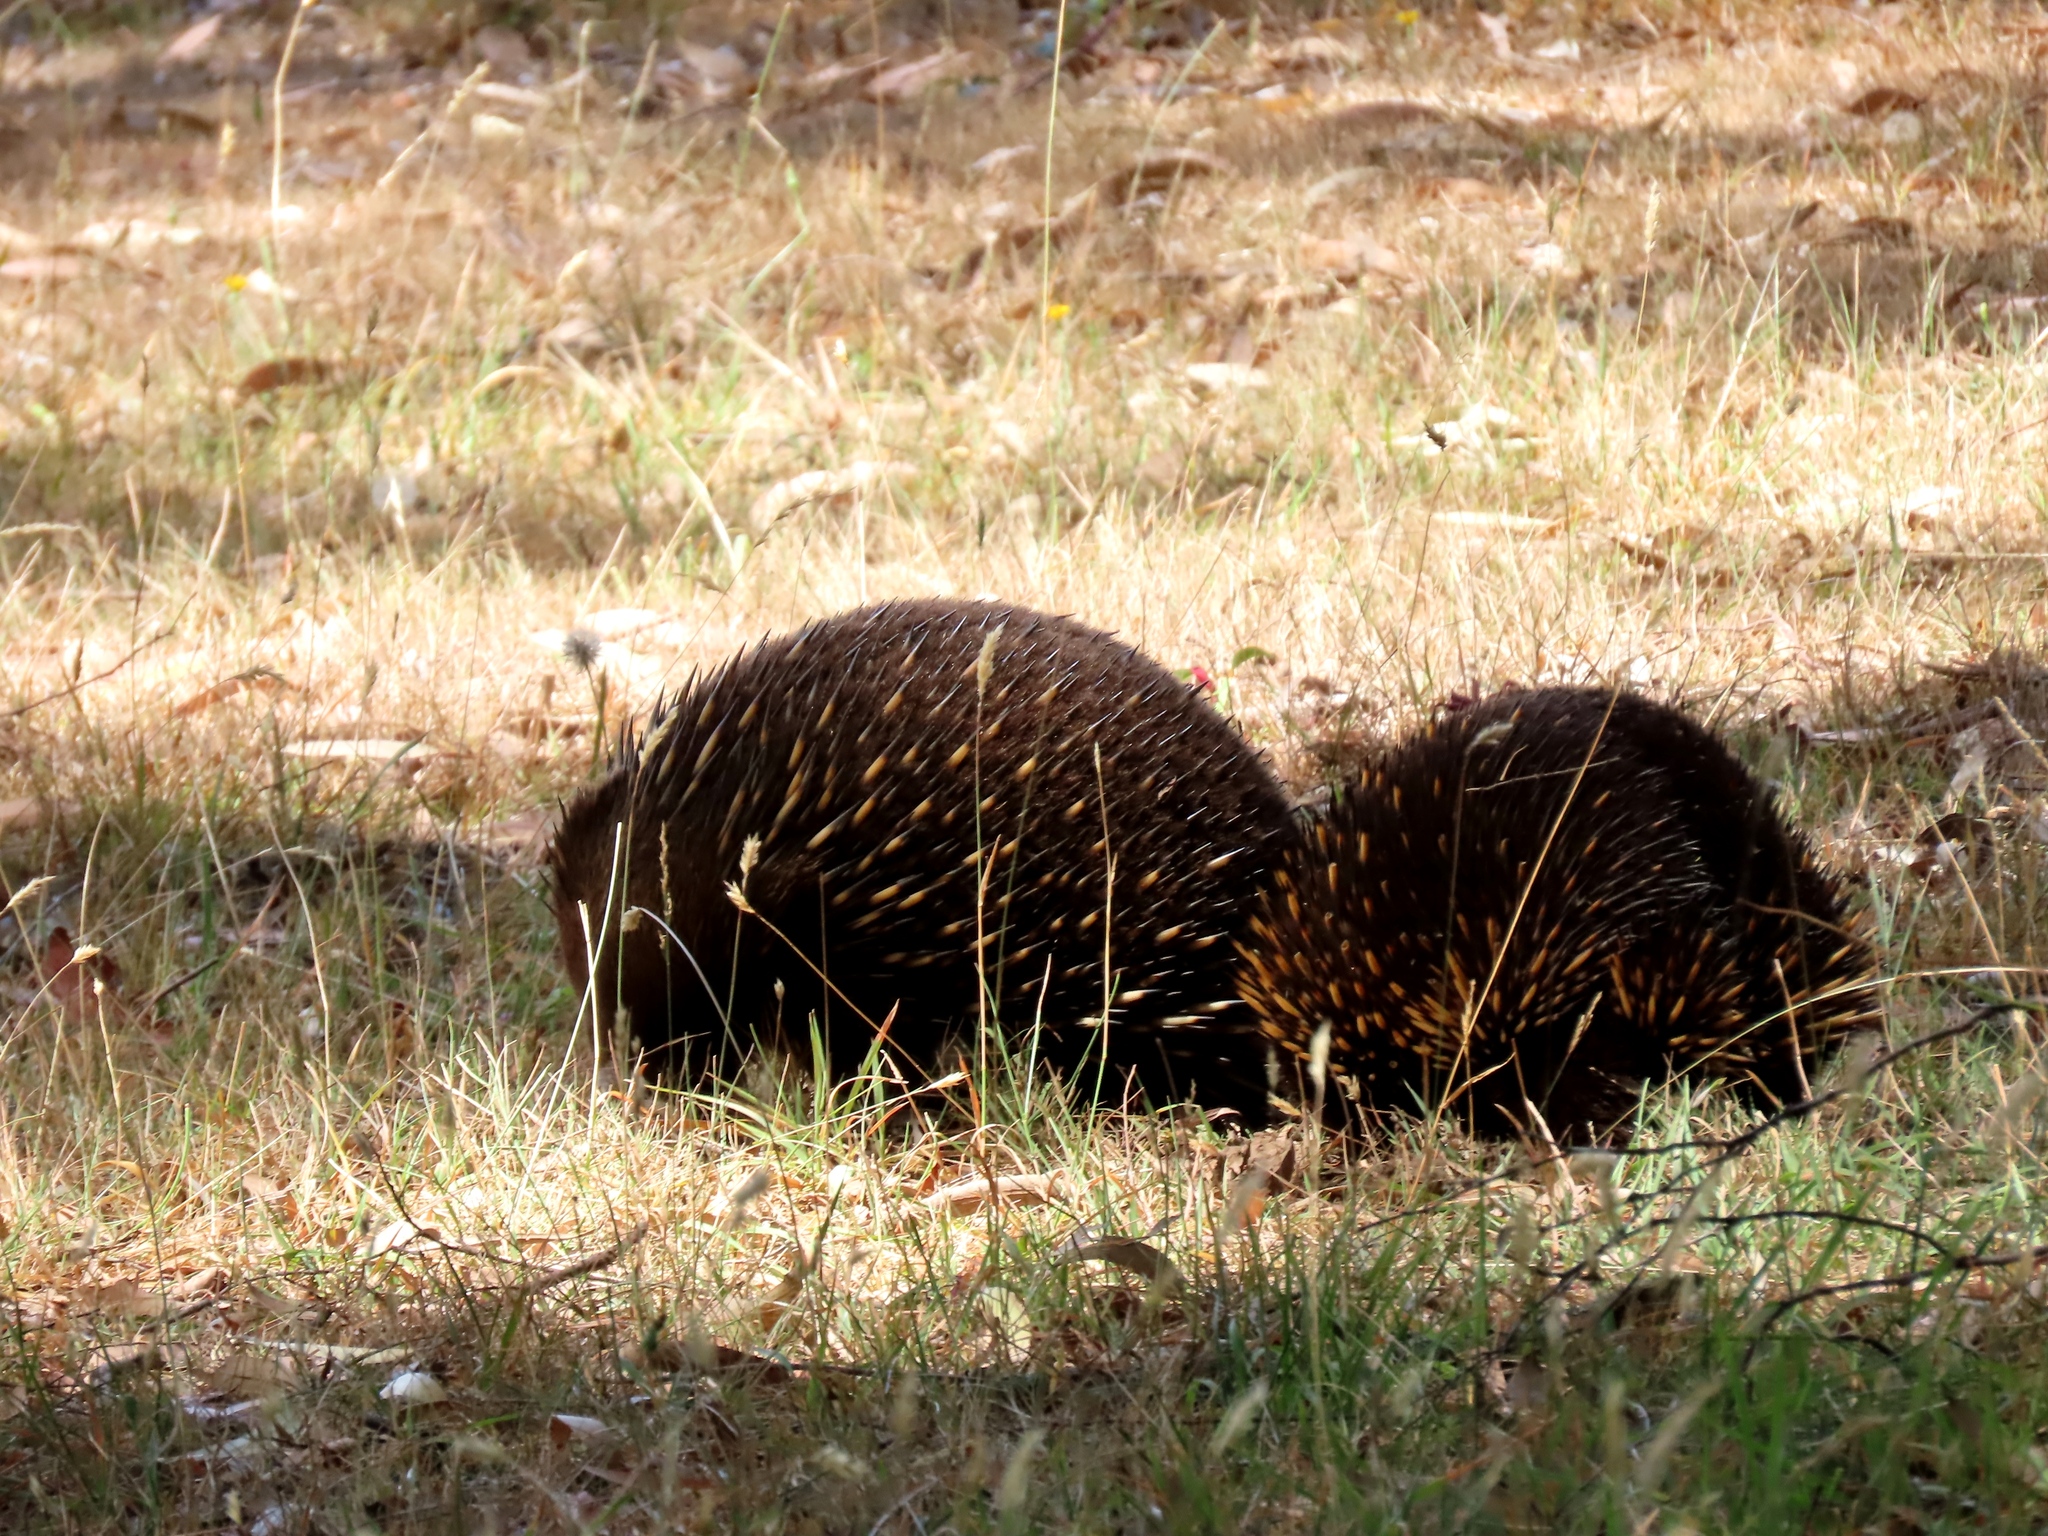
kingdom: Animalia
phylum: Chordata
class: Mammalia
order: Monotremata
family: Tachyglossidae
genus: Tachyglossus
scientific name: Tachyglossus aculeatus
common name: Short-beaked echidna
